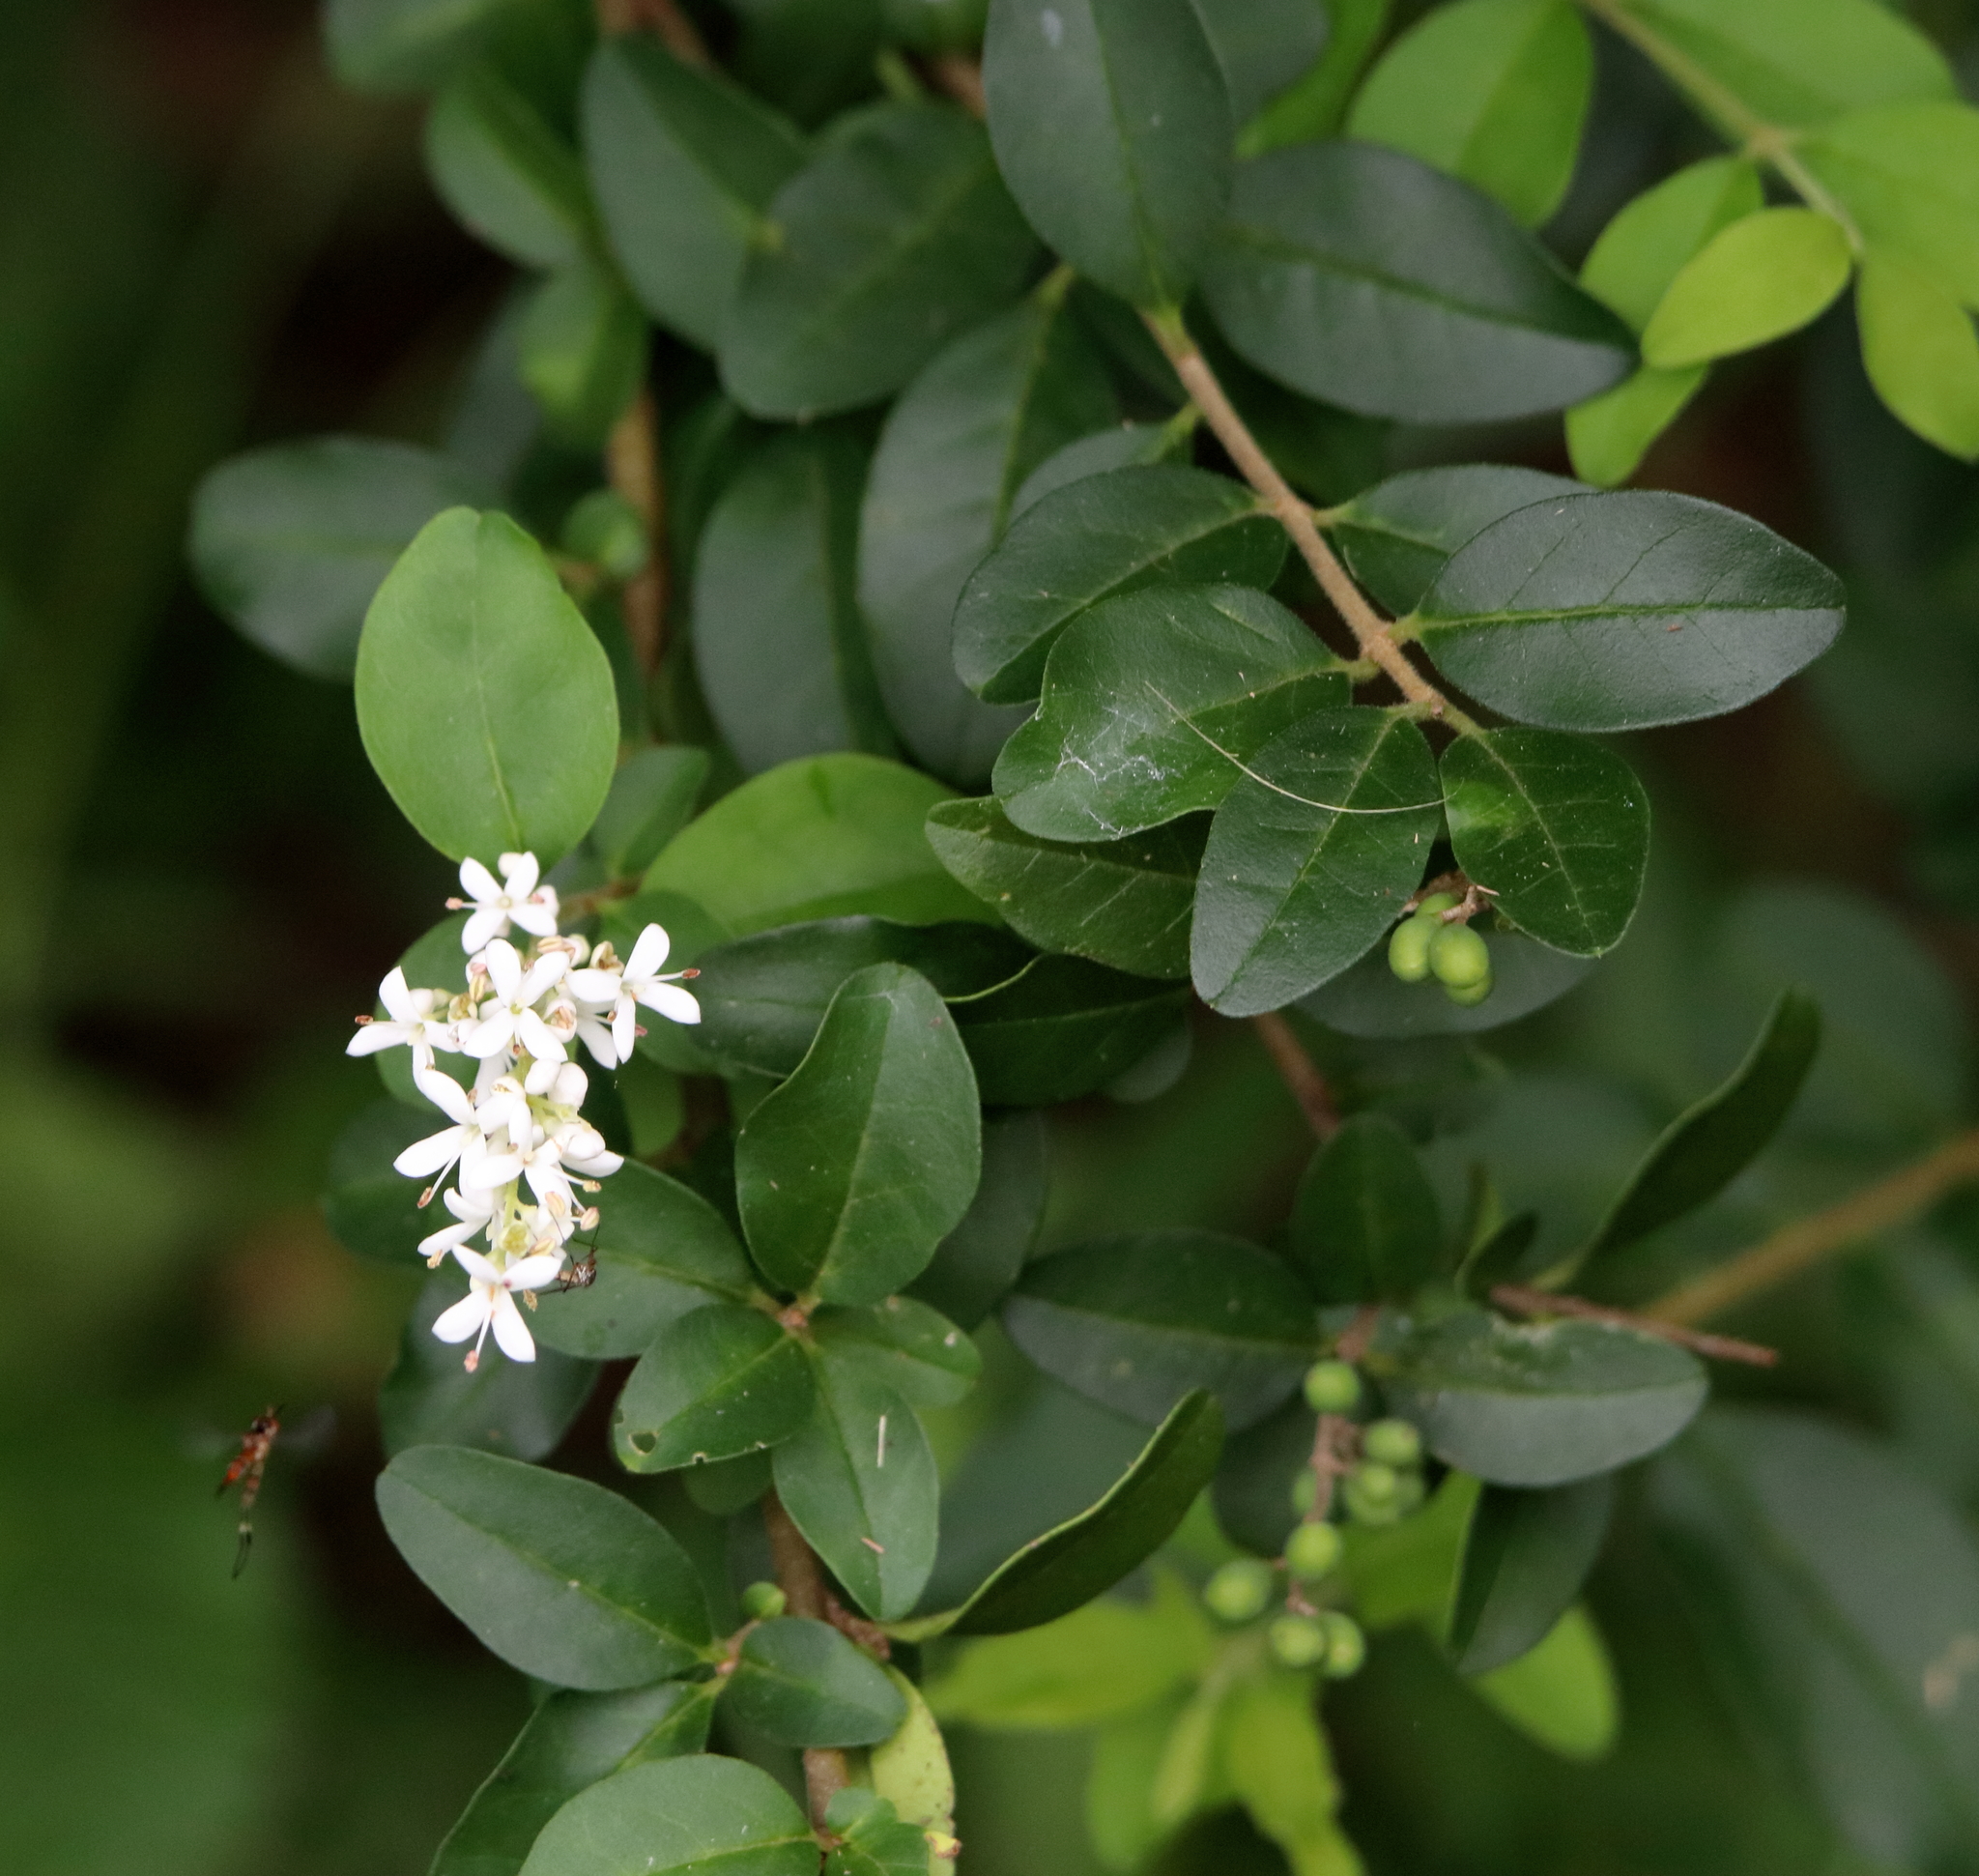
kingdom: Plantae
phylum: Tracheophyta
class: Magnoliopsida
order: Lamiales
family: Oleaceae
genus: Ligustrum
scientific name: Ligustrum sinense
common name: Chinese privet
